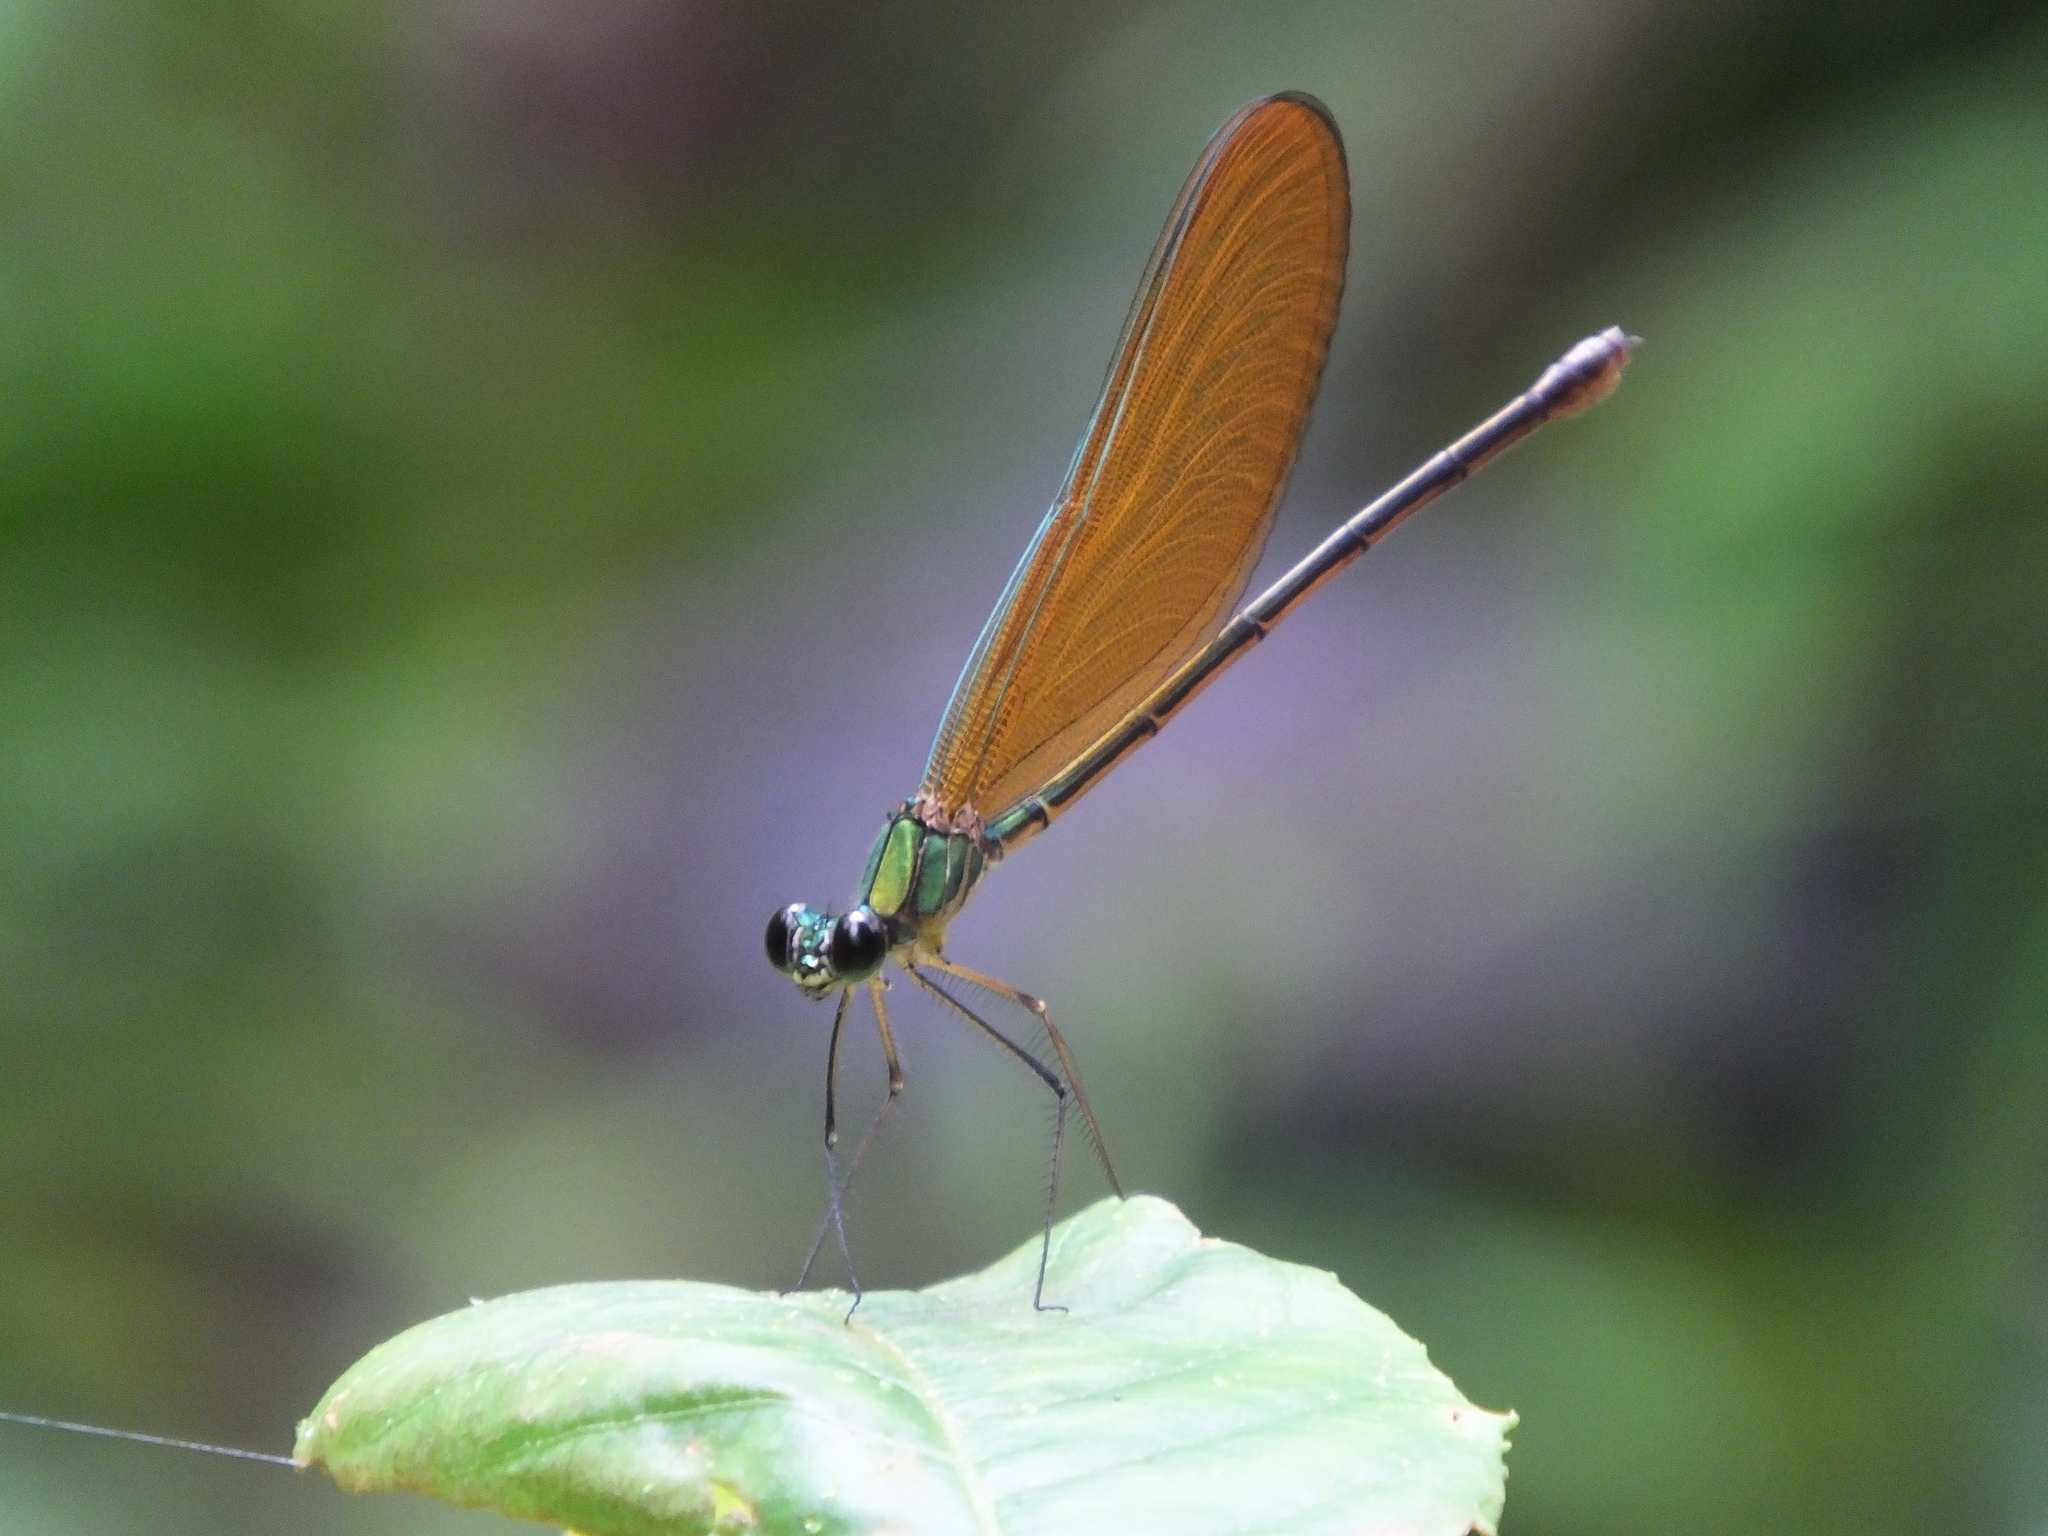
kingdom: Animalia
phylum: Arthropoda
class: Insecta
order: Odonata
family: Calopterygidae
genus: Neurobasis
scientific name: Neurobasis kaupi
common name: Great blue metalwing
